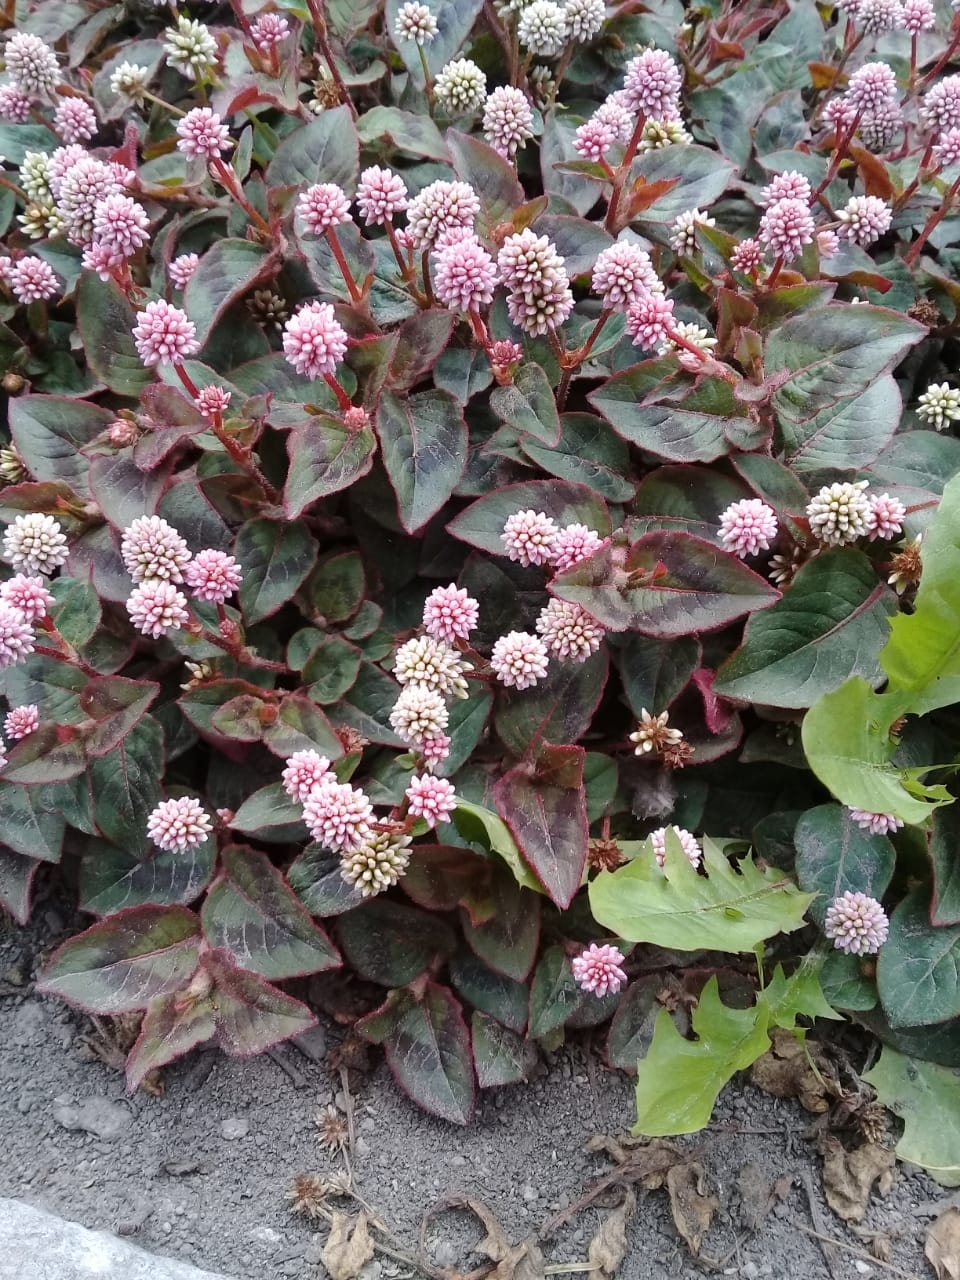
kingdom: Plantae
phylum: Tracheophyta
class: Magnoliopsida
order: Caryophyllales
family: Polygonaceae
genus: Persicaria
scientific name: Persicaria capitata
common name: Pinkhead smartweed
